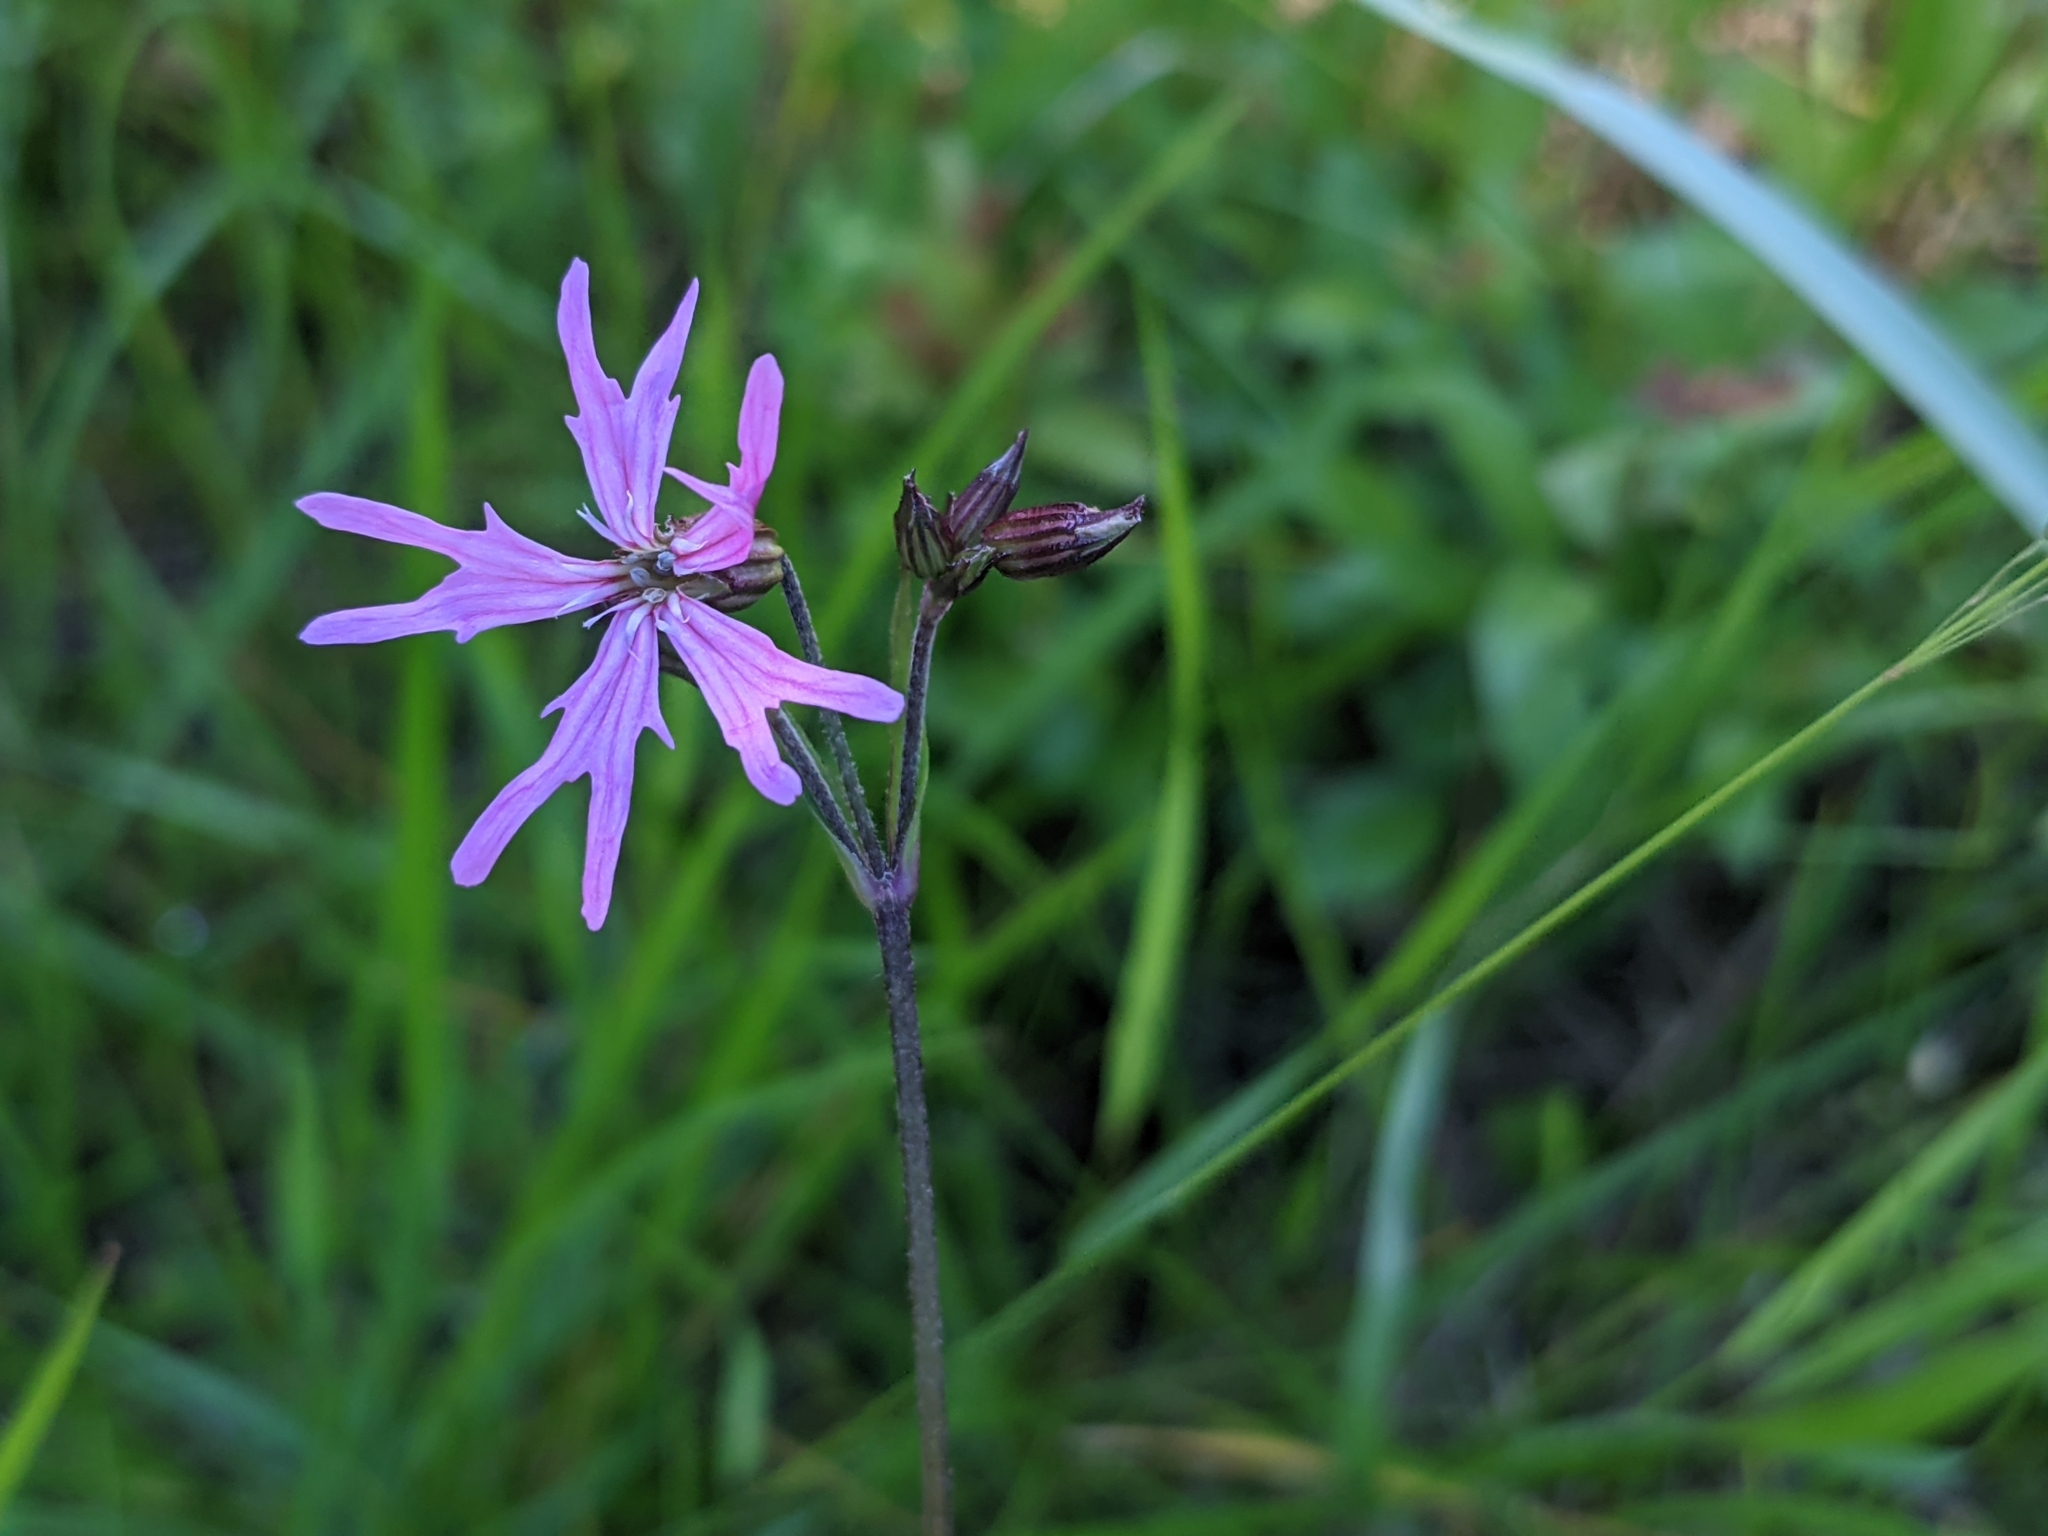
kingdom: Plantae
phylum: Tracheophyta
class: Magnoliopsida
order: Caryophyllales
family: Caryophyllaceae
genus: Silene
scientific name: Silene flos-cuculi
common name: Ragged-robin
